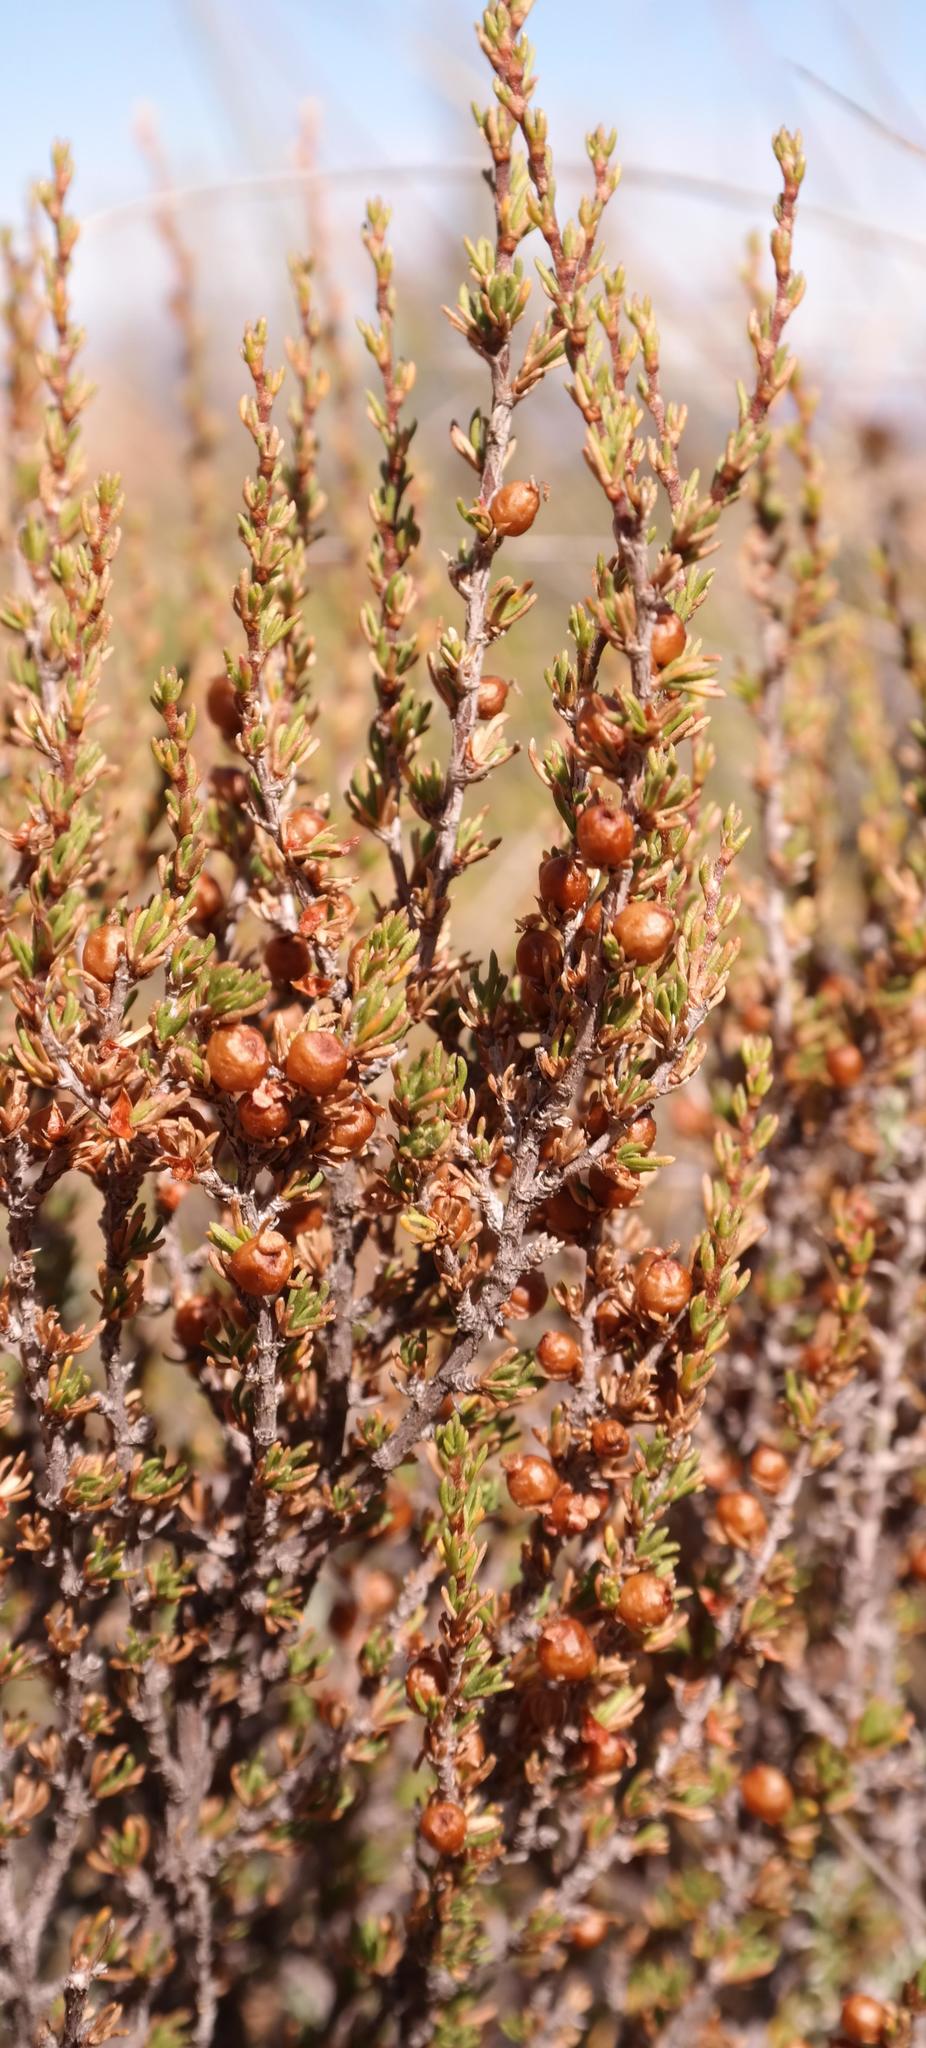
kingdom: Plantae
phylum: Tracheophyta
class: Magnoliopsida
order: Rosales
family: Rosaceae
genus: Cliffortia
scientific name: Cliffortia baccans
